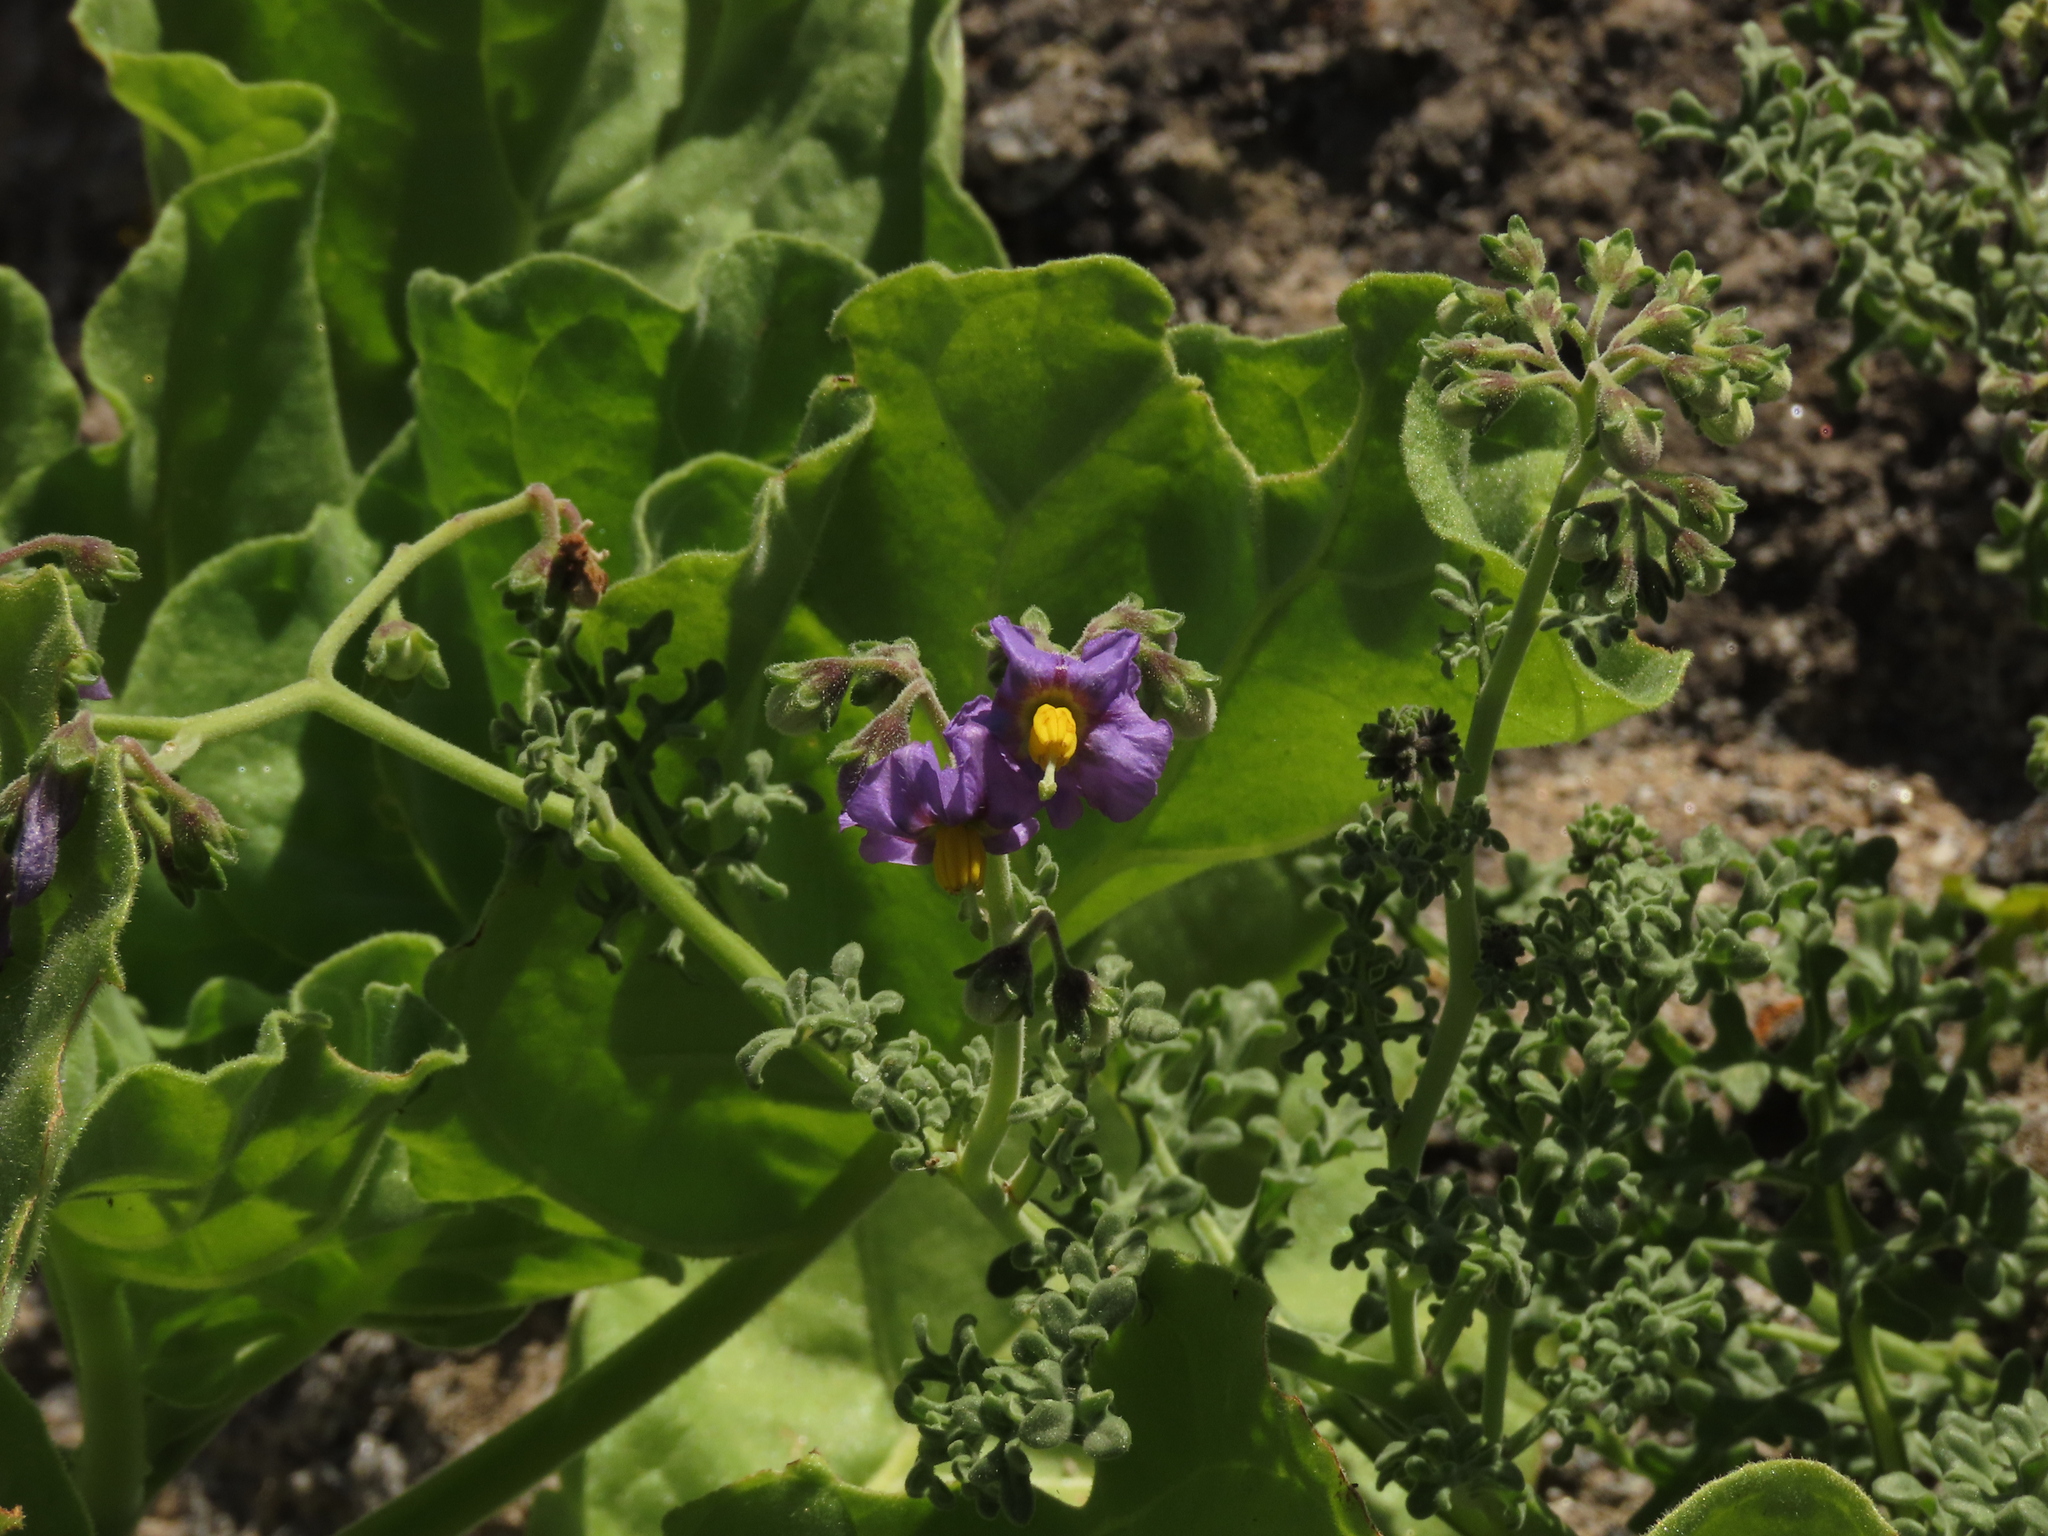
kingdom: Plantae
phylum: Tracheophyta
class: Magnoliopsida
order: Solanales
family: Solanaceae
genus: Solanum
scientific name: Solanum remyanum
